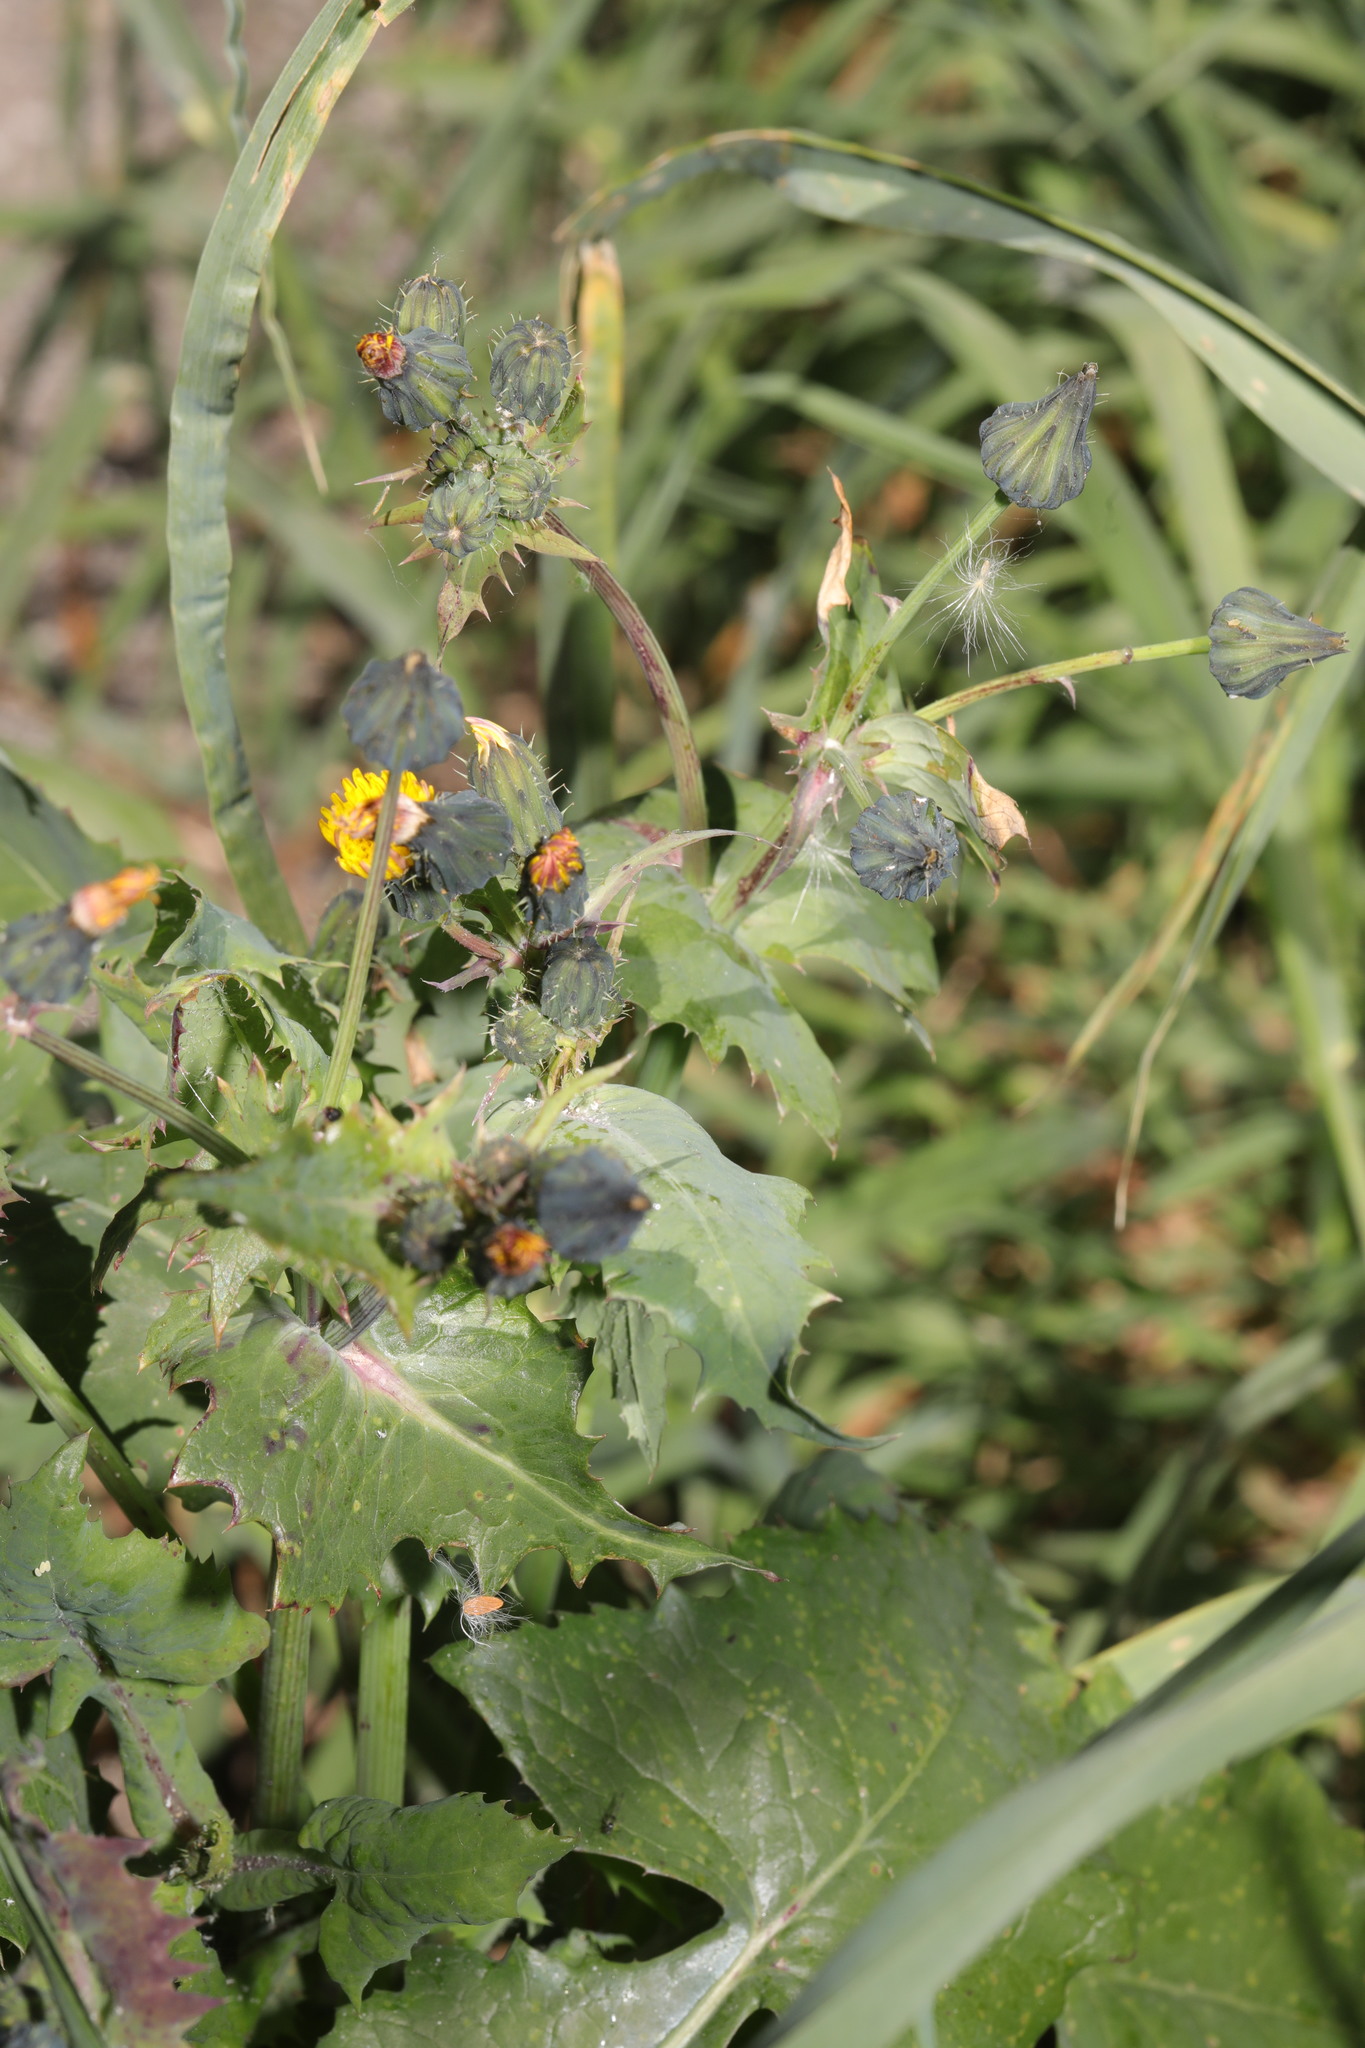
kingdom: Plantae
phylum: Tracheophyta
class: Magnoliopsida
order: Asterales
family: Asteraceae
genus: Sonchus
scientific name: Sonchus oleraceus
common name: Common sowthistle
